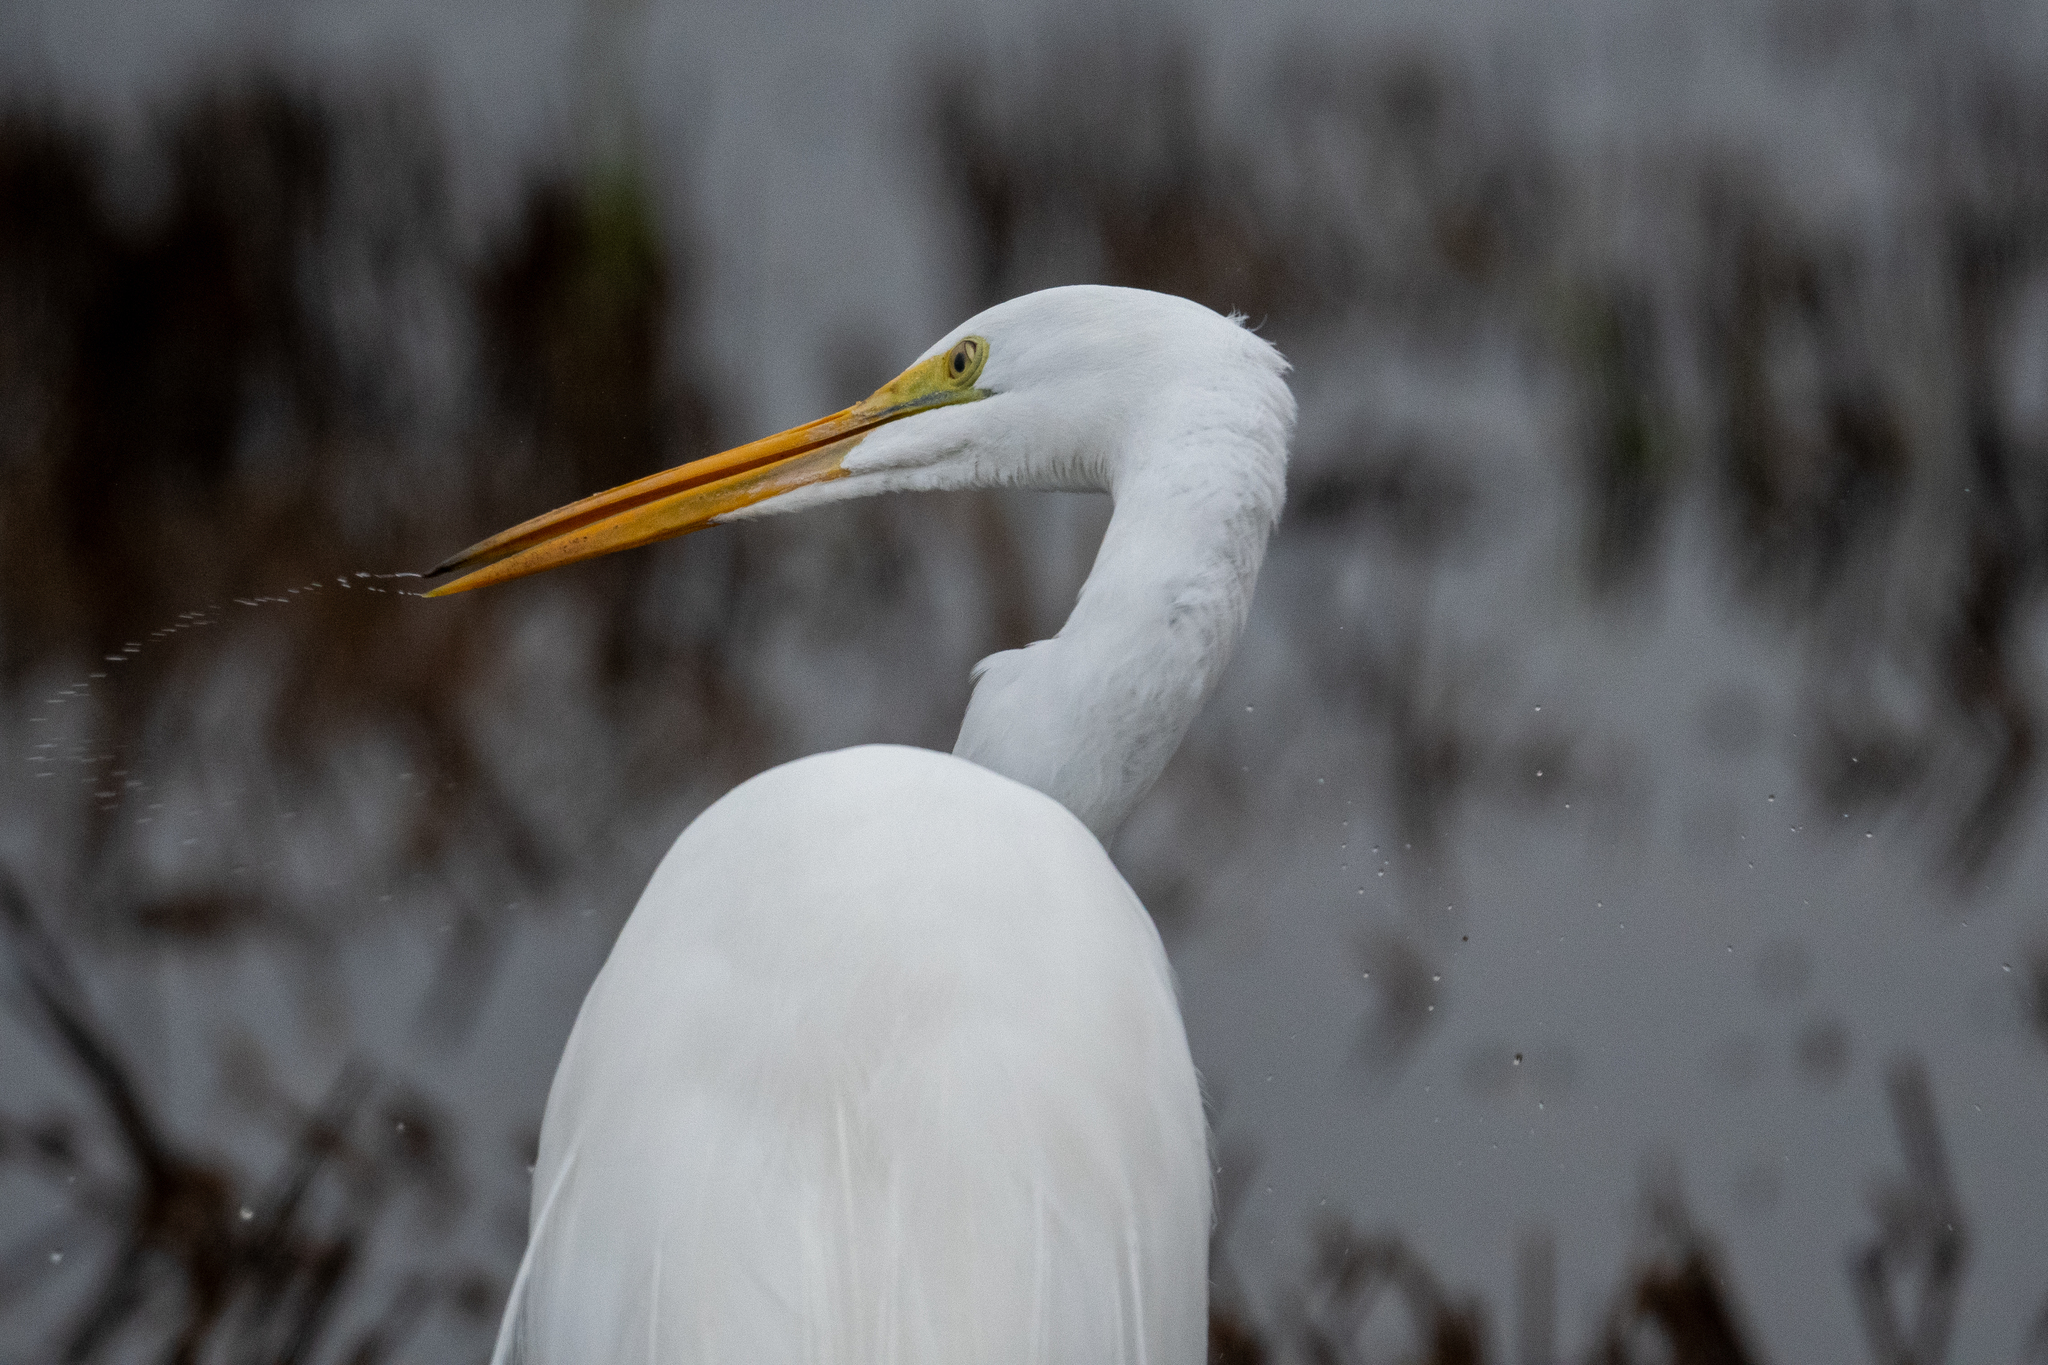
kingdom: Animalia
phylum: Chordata
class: Aves
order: Pelecaniformes
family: Ardeidae
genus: Ardea
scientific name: Ardea alba
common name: Great egret
